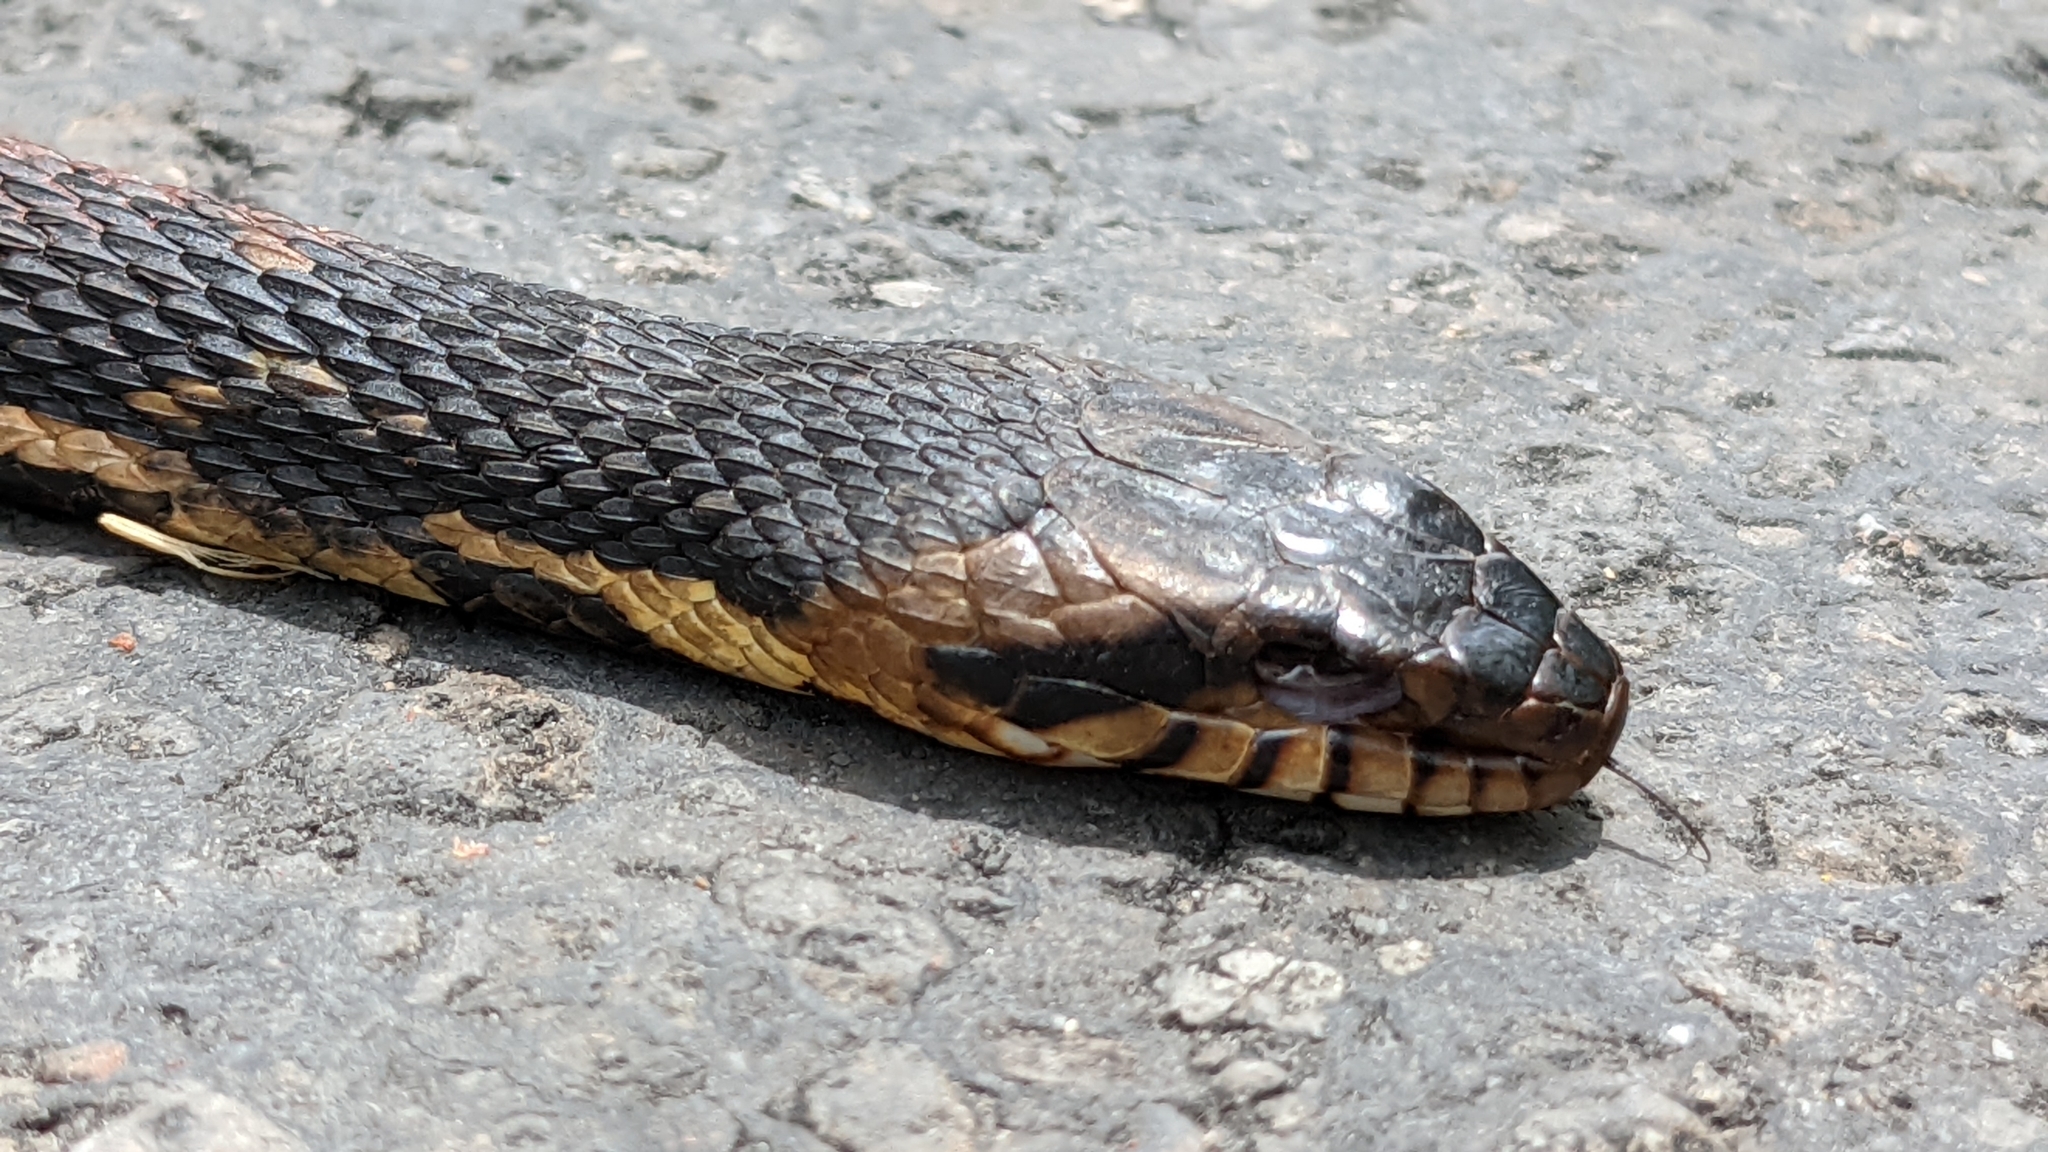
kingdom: Animalia
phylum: Chordata
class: Squamata
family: Colubridae
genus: Nerodia
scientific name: Nerodia fasciata
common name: Southern water snake
